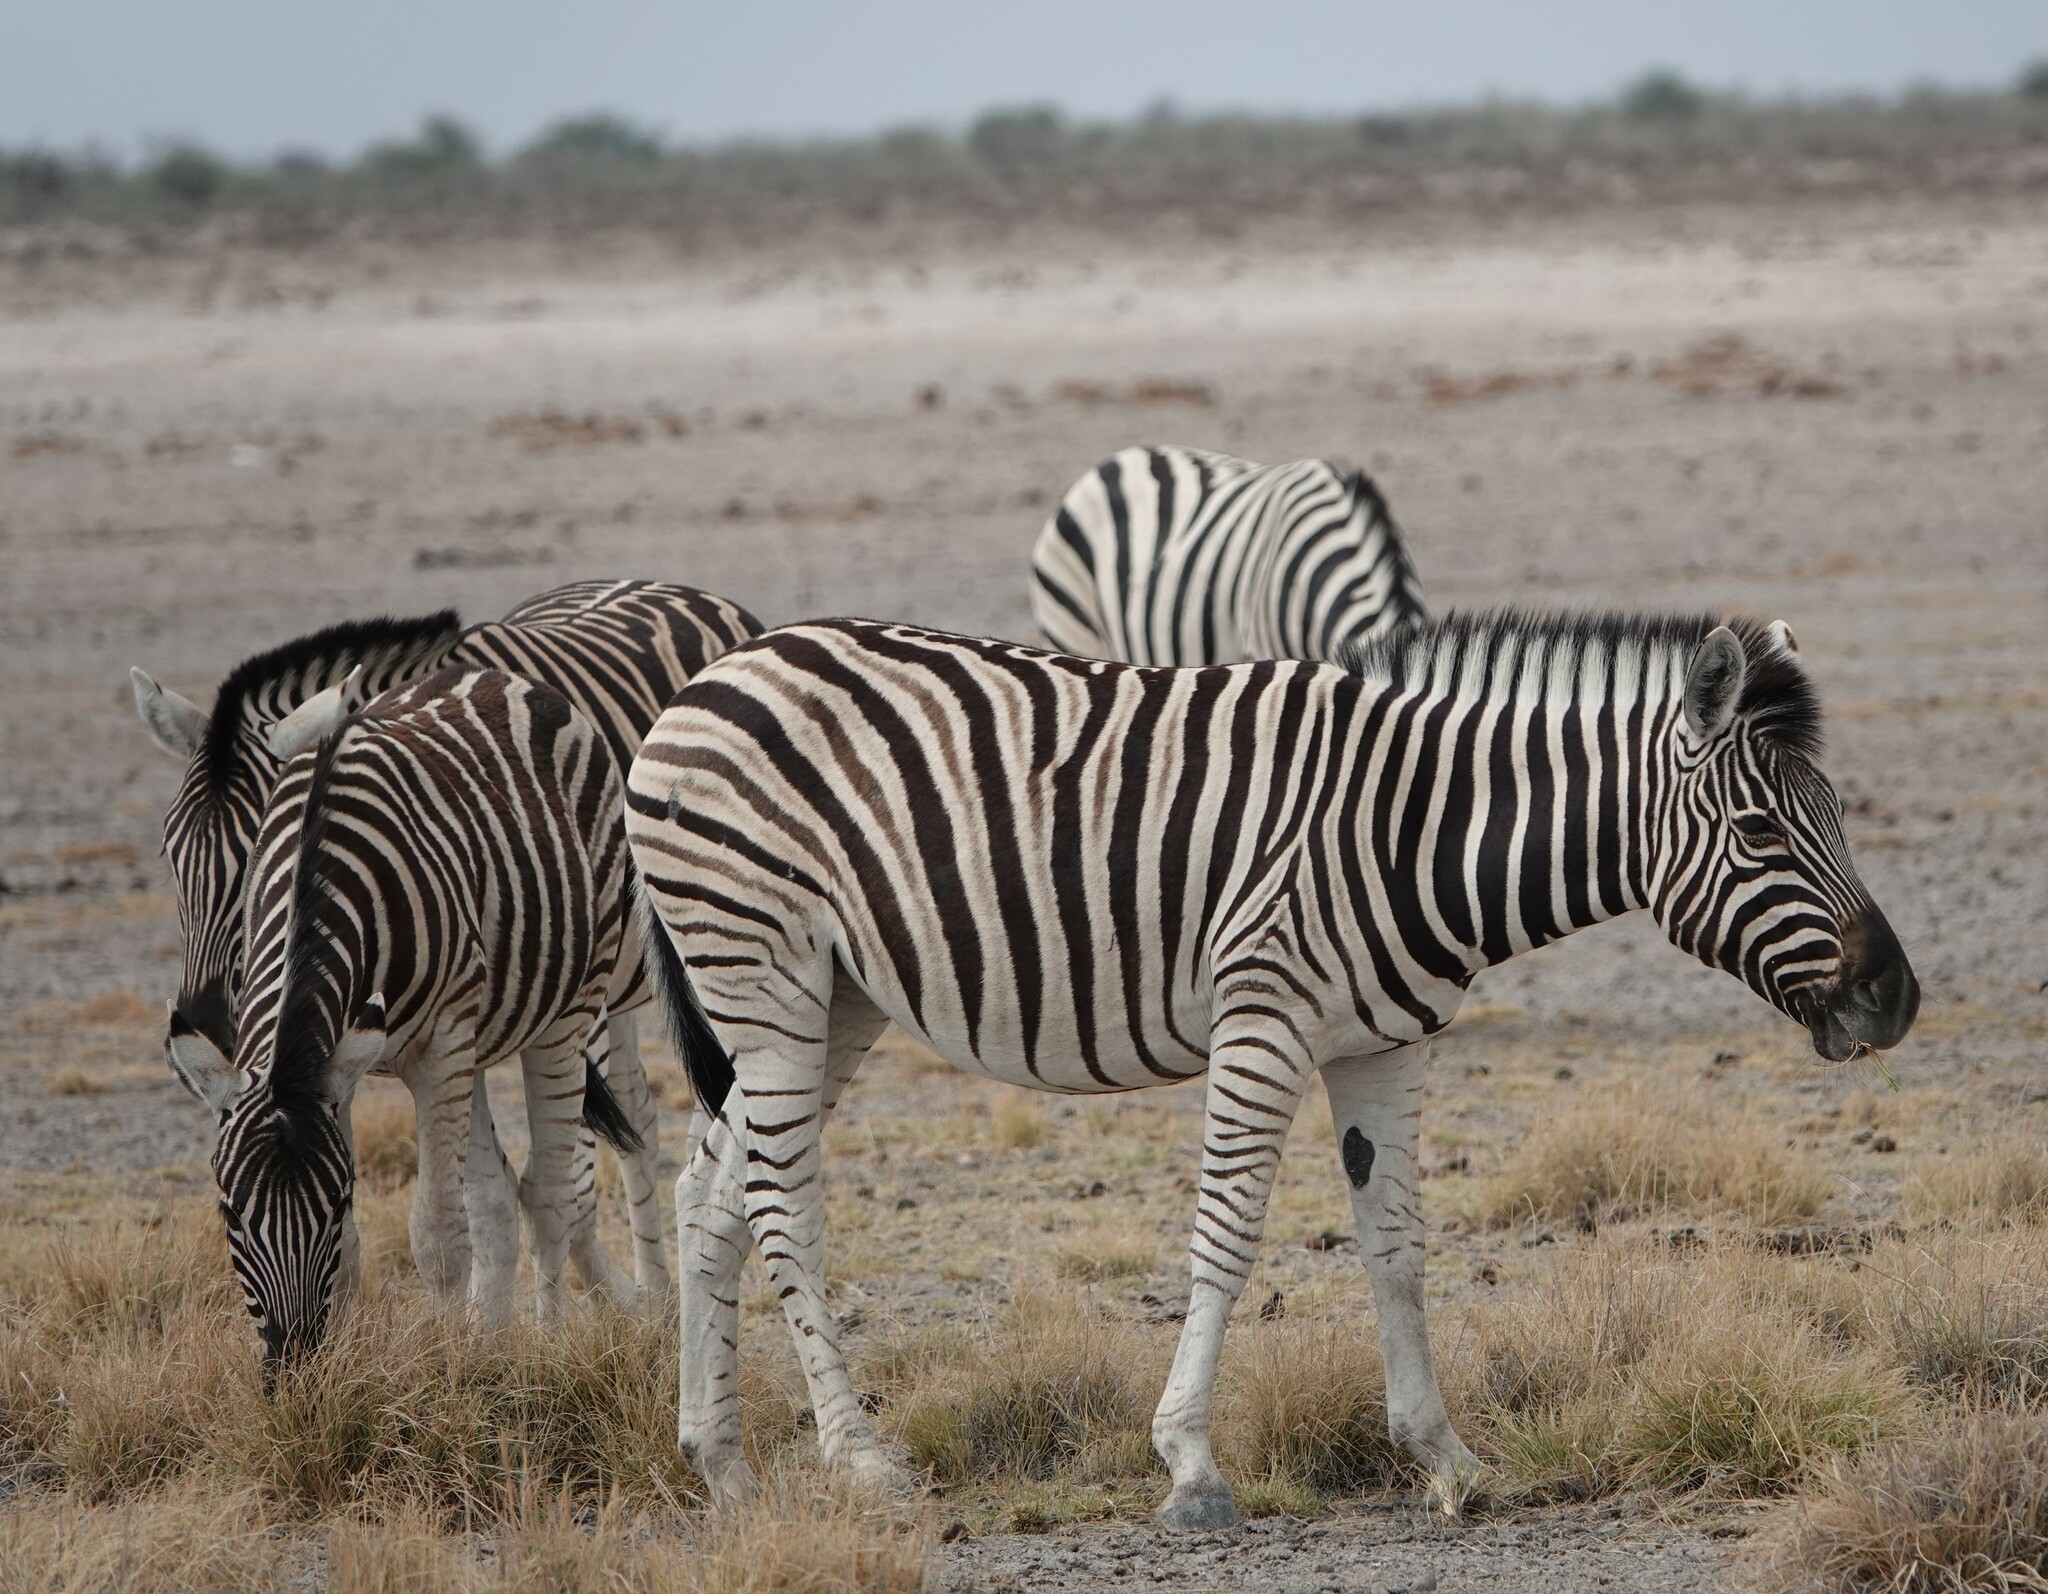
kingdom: Animalia
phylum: Chordata
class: Mammalia
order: Perissodactyla
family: Equidae
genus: Equus
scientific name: Equus quagga
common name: Plains zebra
